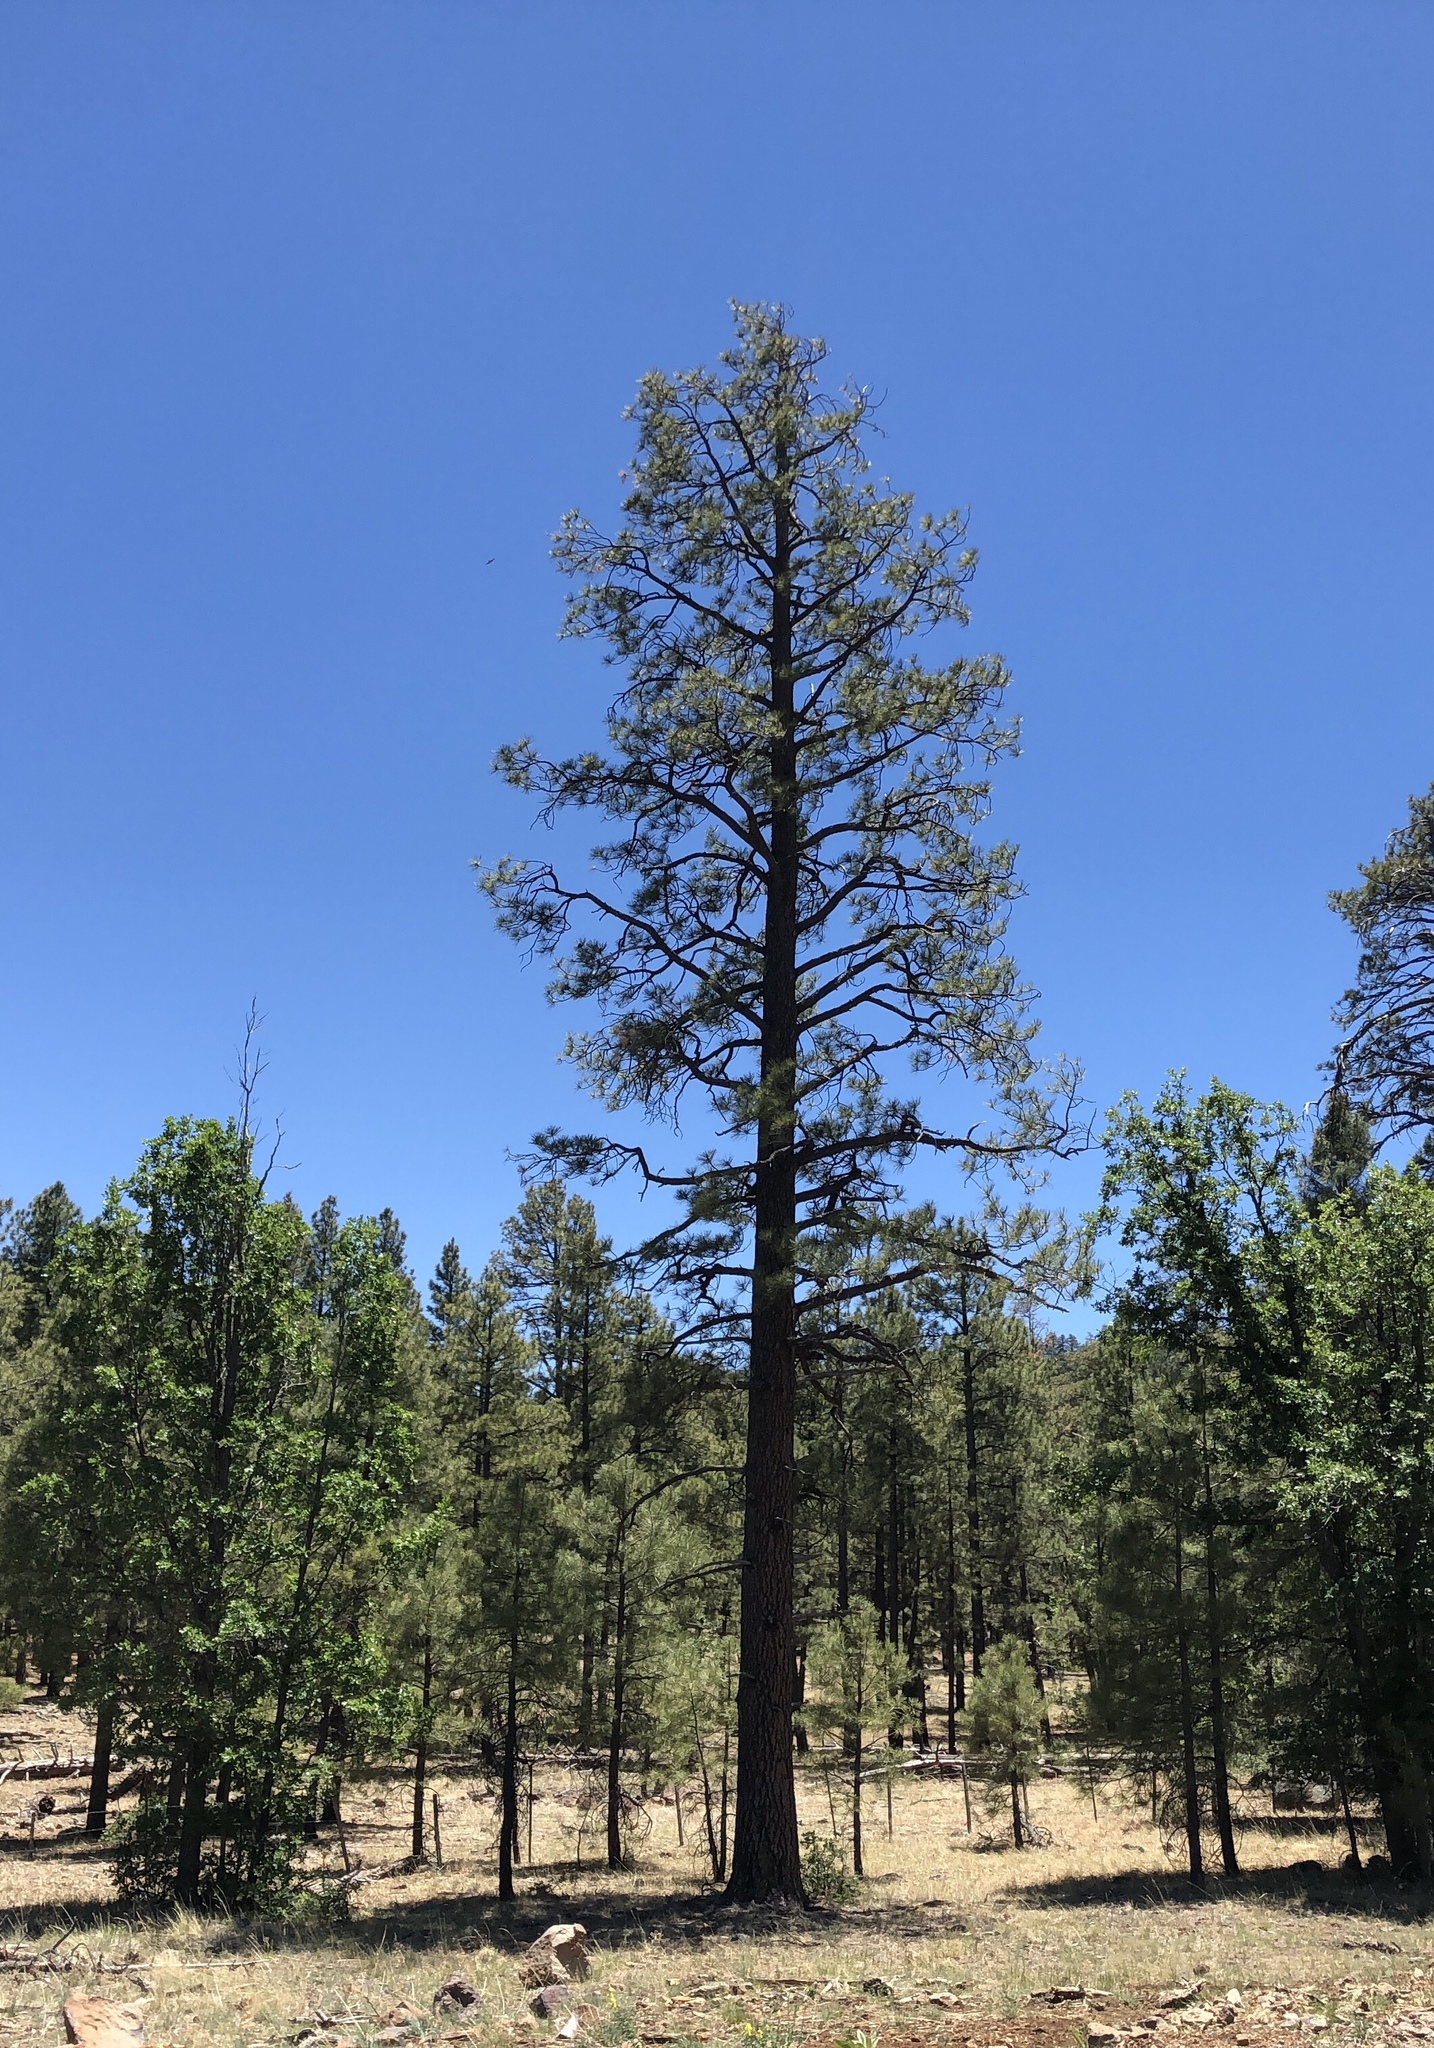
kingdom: Plantae
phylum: Tracheophyta
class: Pinopsida
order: Pinales
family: Pinaceae
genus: Pinus
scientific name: Pinus ponderosa
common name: Western yellow-pine
